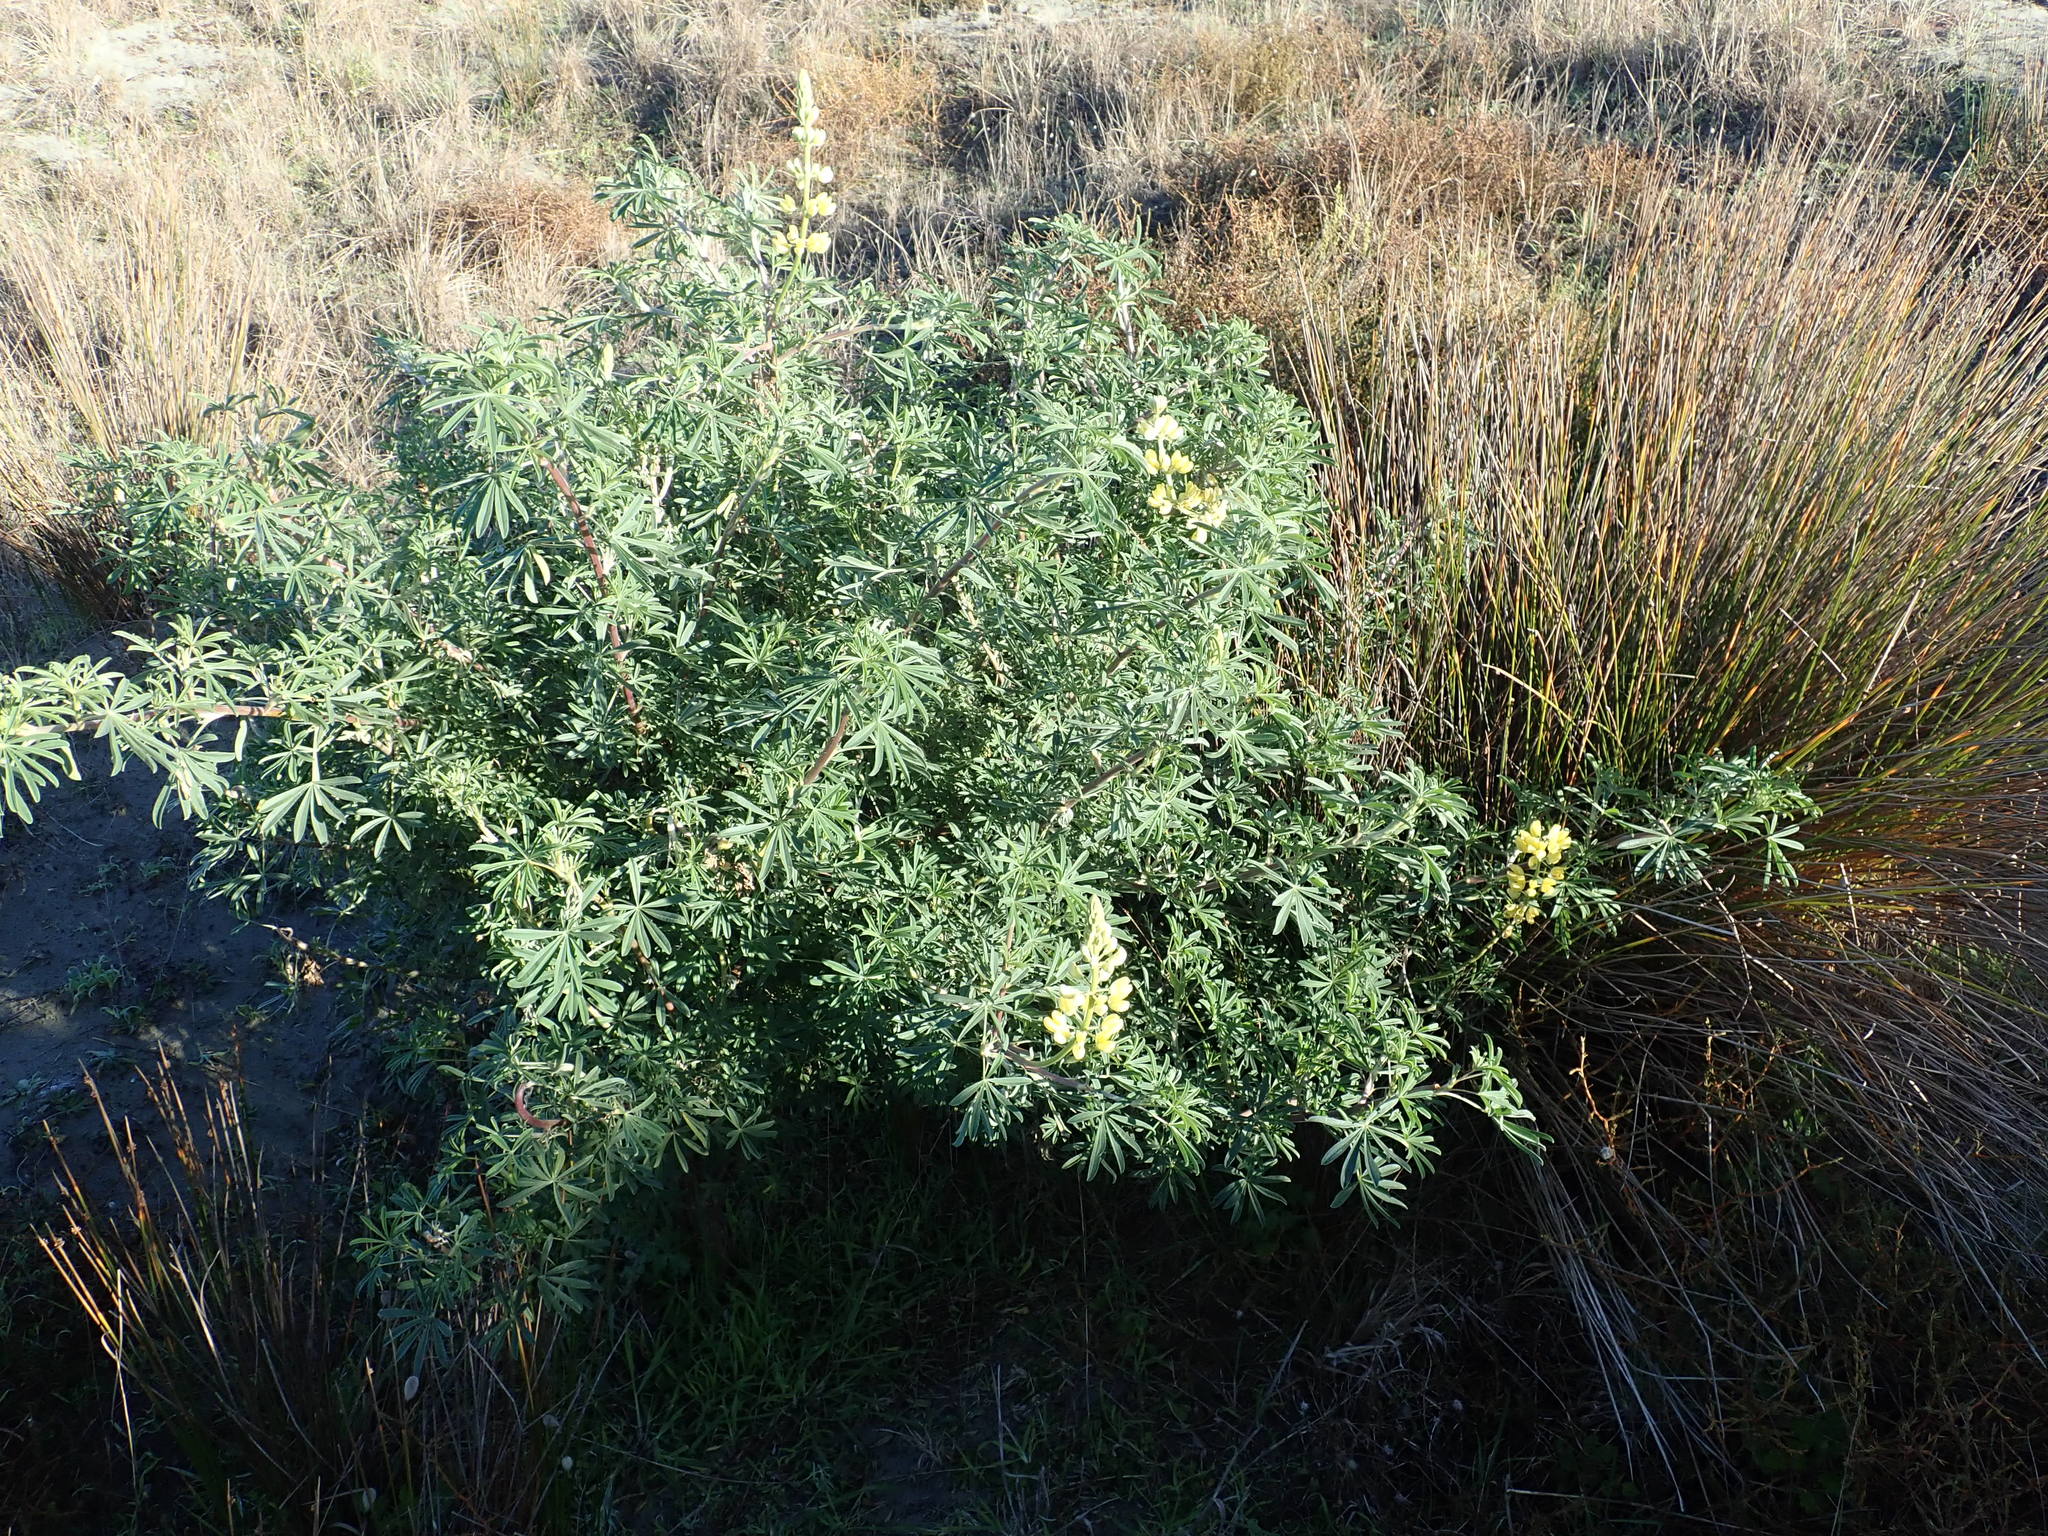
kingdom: Plantae
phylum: Tracheophyta
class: Magnoliopsida
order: Fabales
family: Fabaceae
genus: Lupinus
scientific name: Lupinus arboreus
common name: Yellow bush lupine
